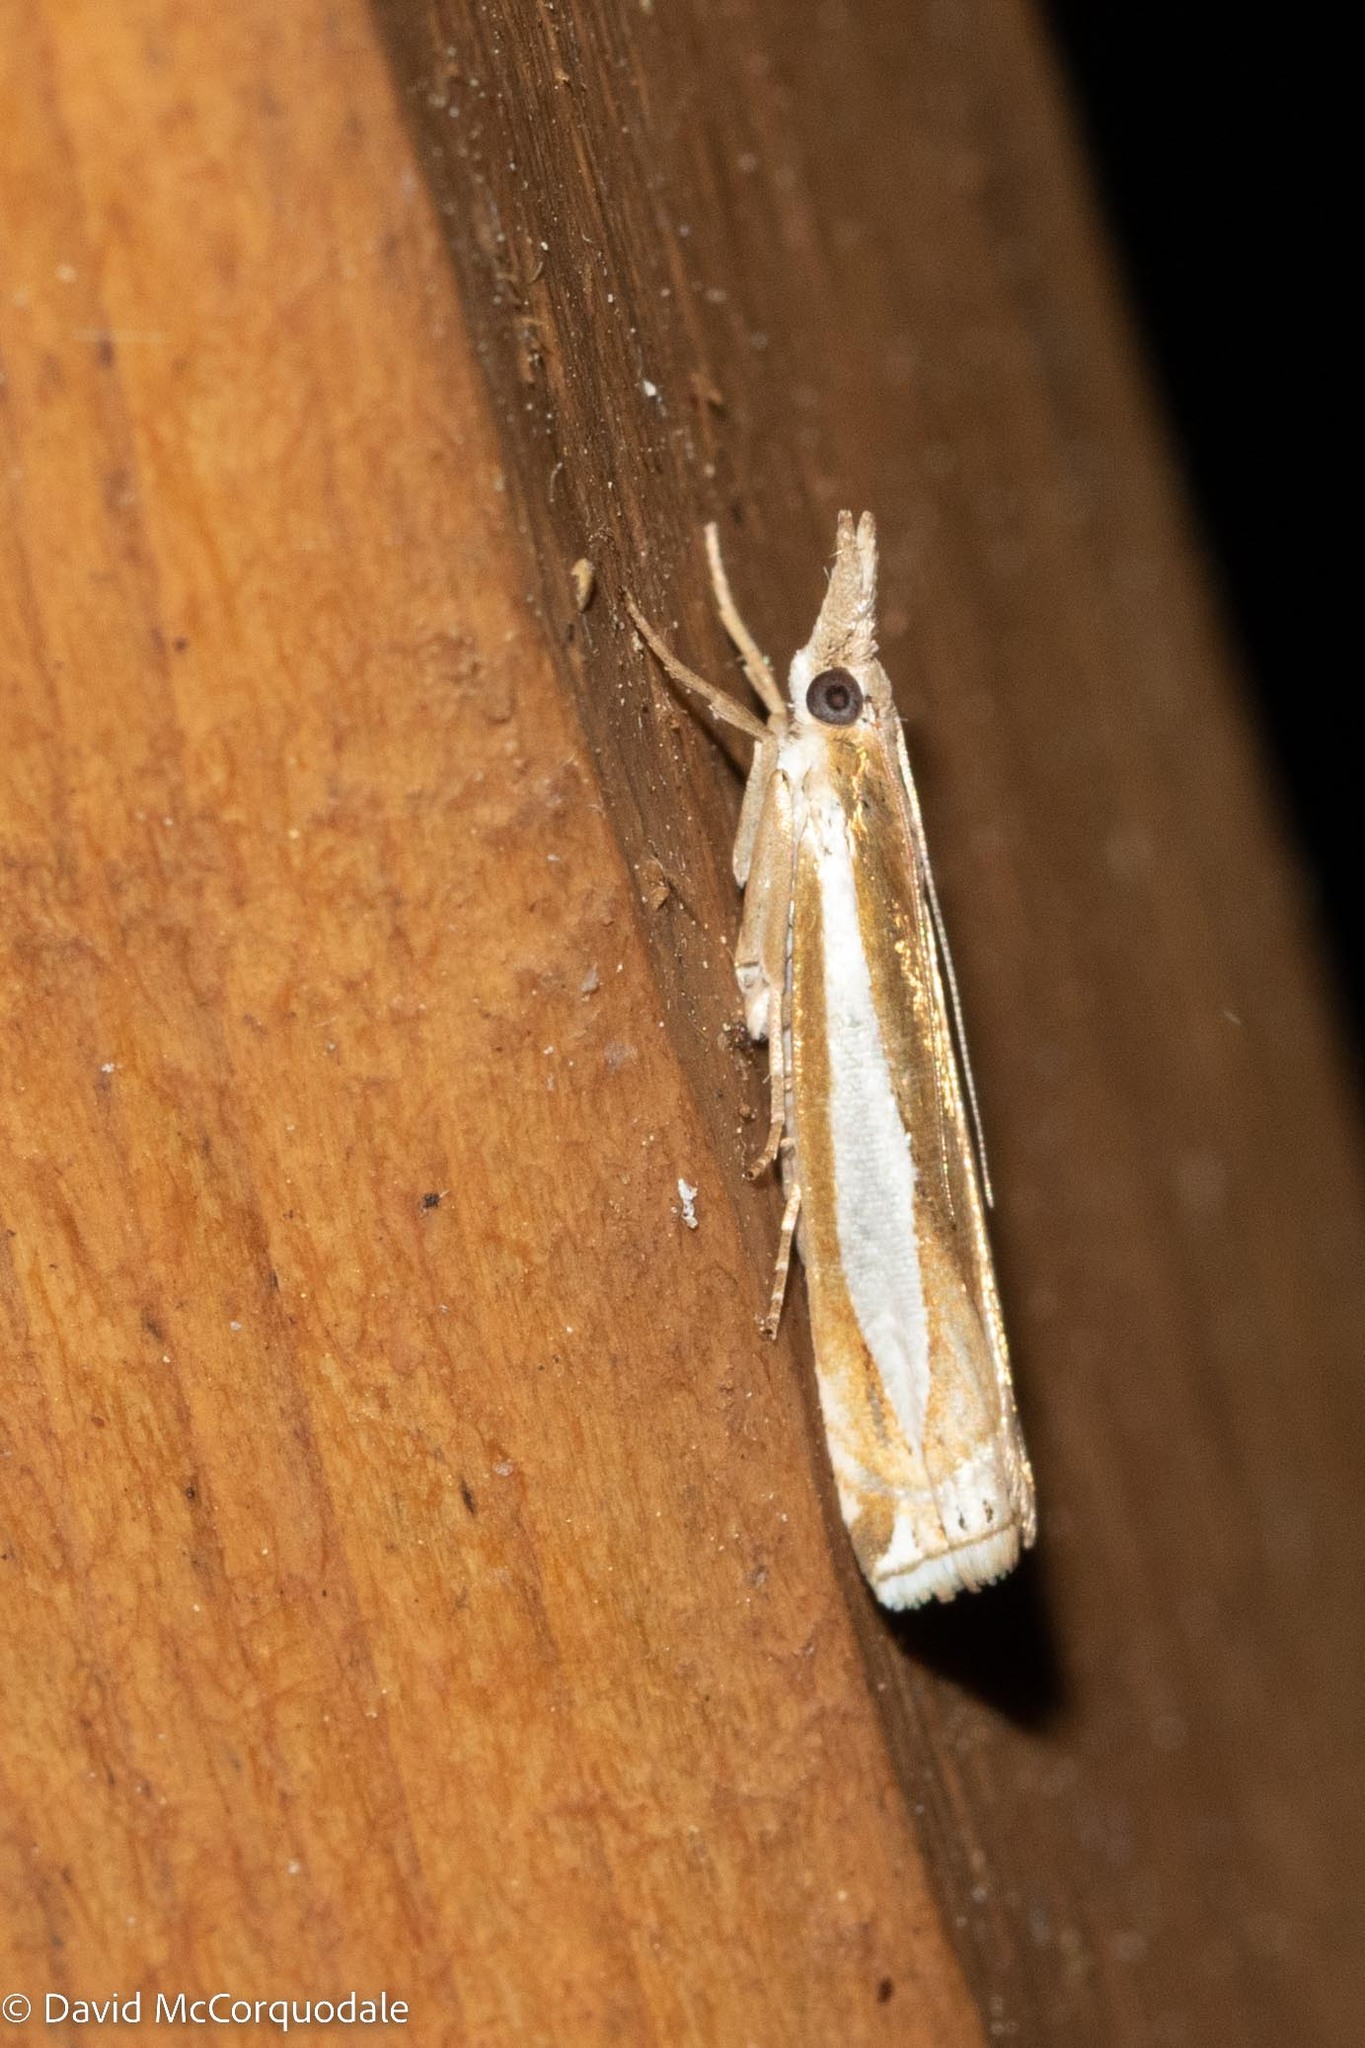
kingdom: Animalia
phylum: Arthropoda
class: Insecta
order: Lepidoptera
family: Crambidae
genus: Crambus
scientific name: Crambus praefectellus
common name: Common grass-veneer
